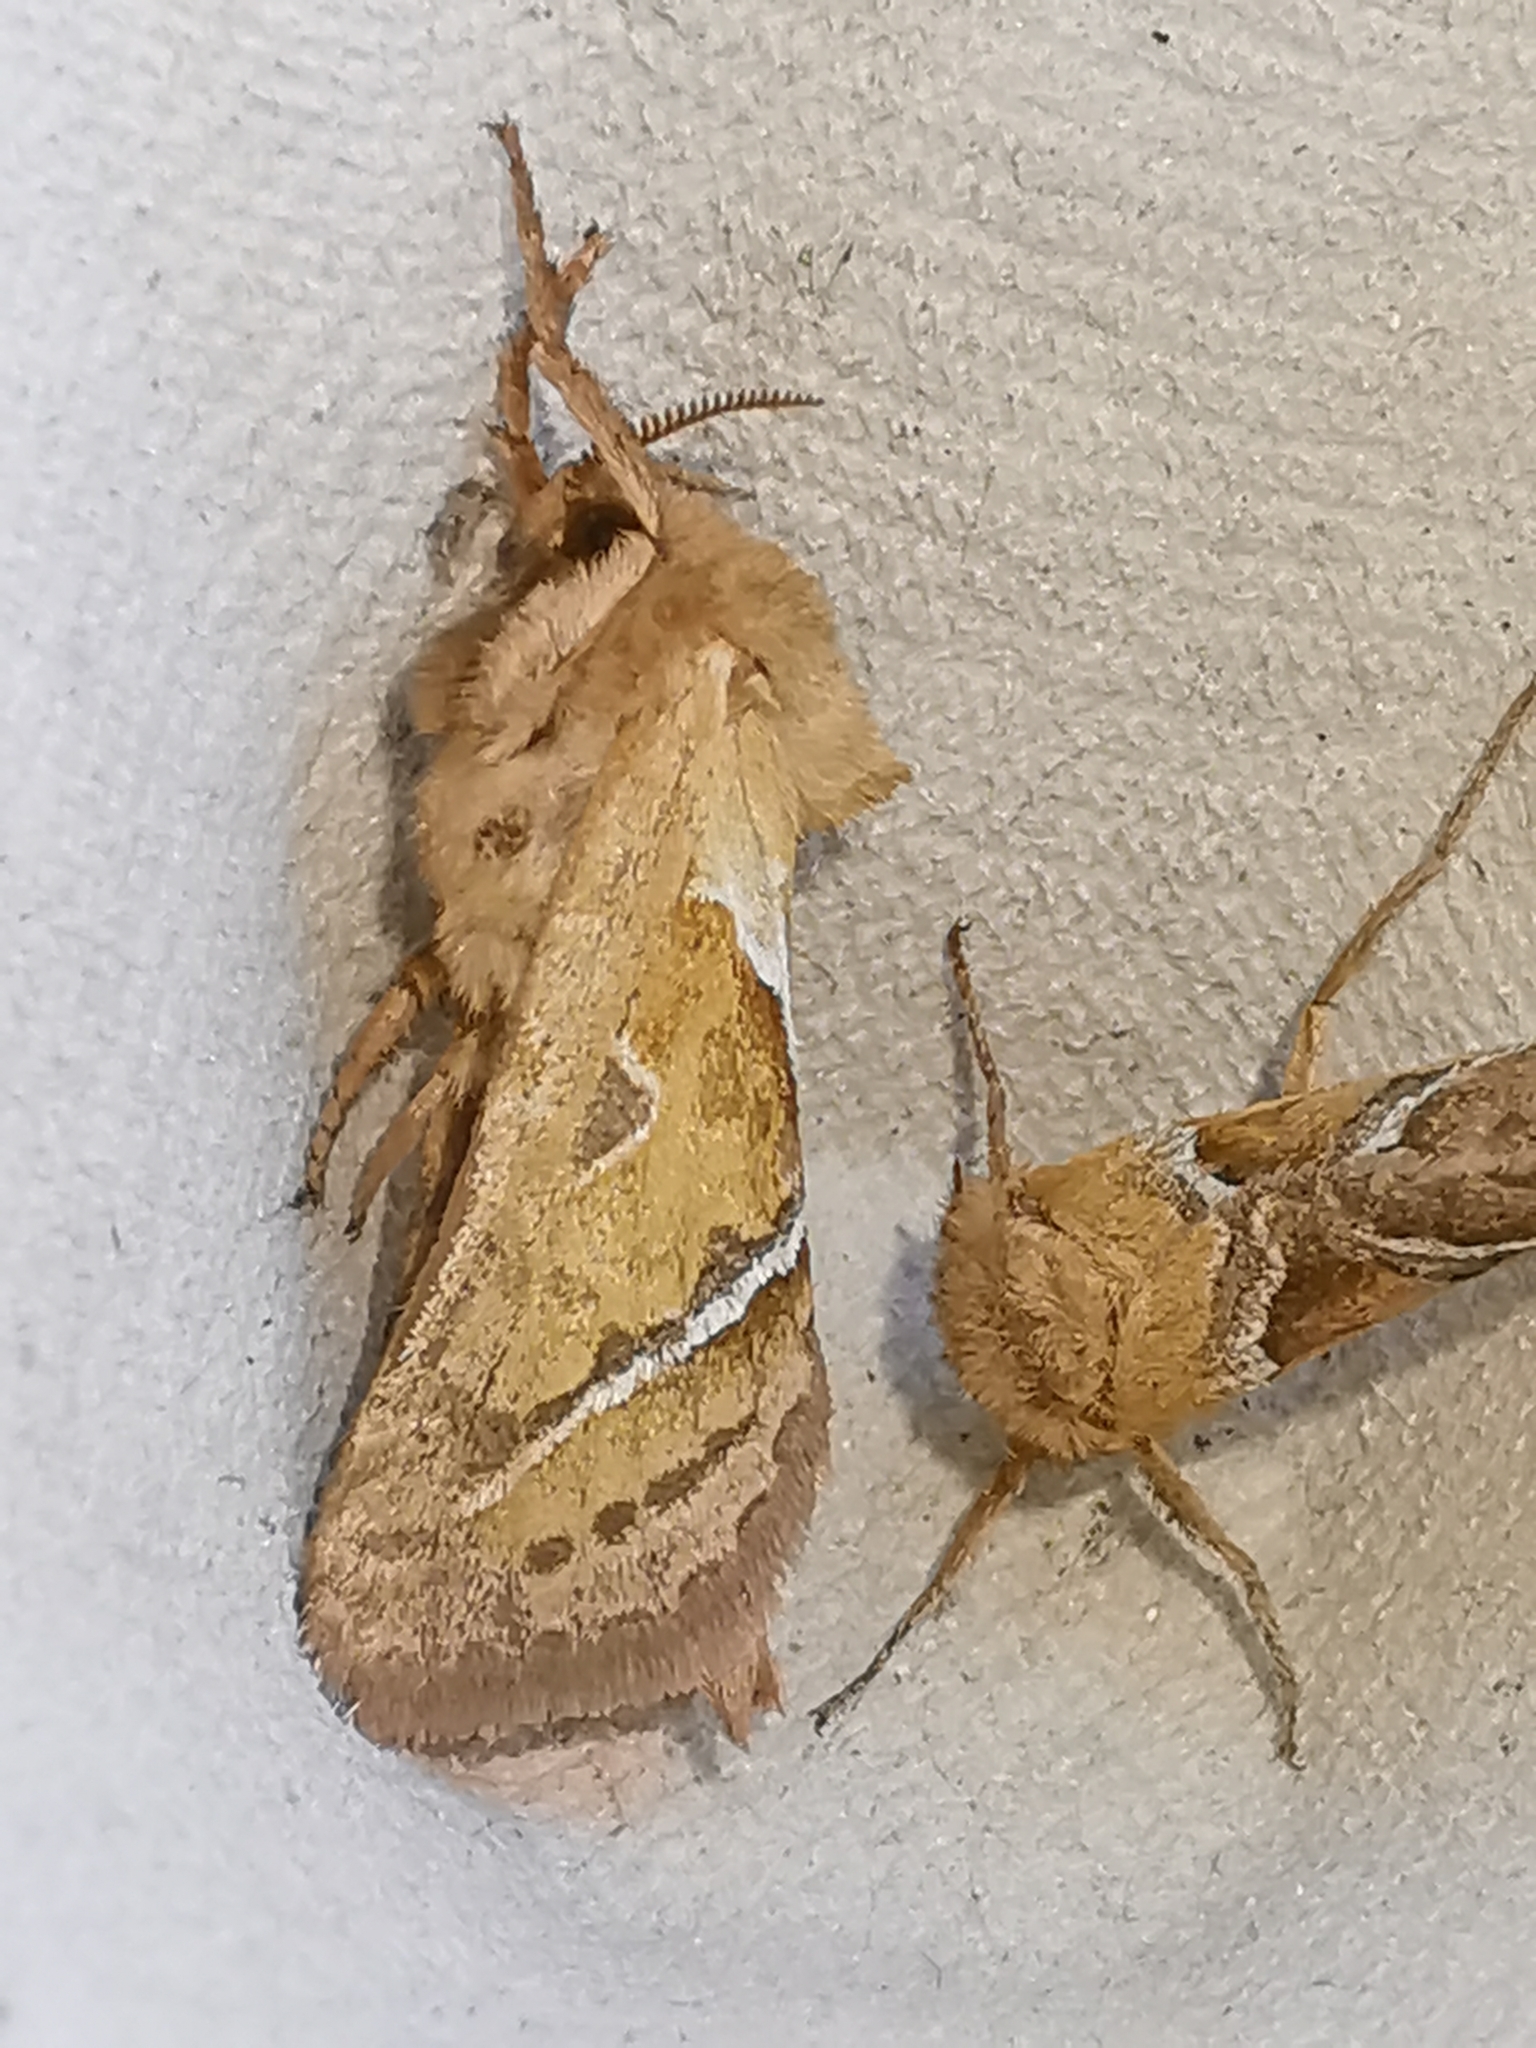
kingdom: Animalia
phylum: Arthropoda
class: Insecta
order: Lepidoptera
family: Hepialidae
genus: Triodia
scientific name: Triodia sylvina
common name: Orange swift
